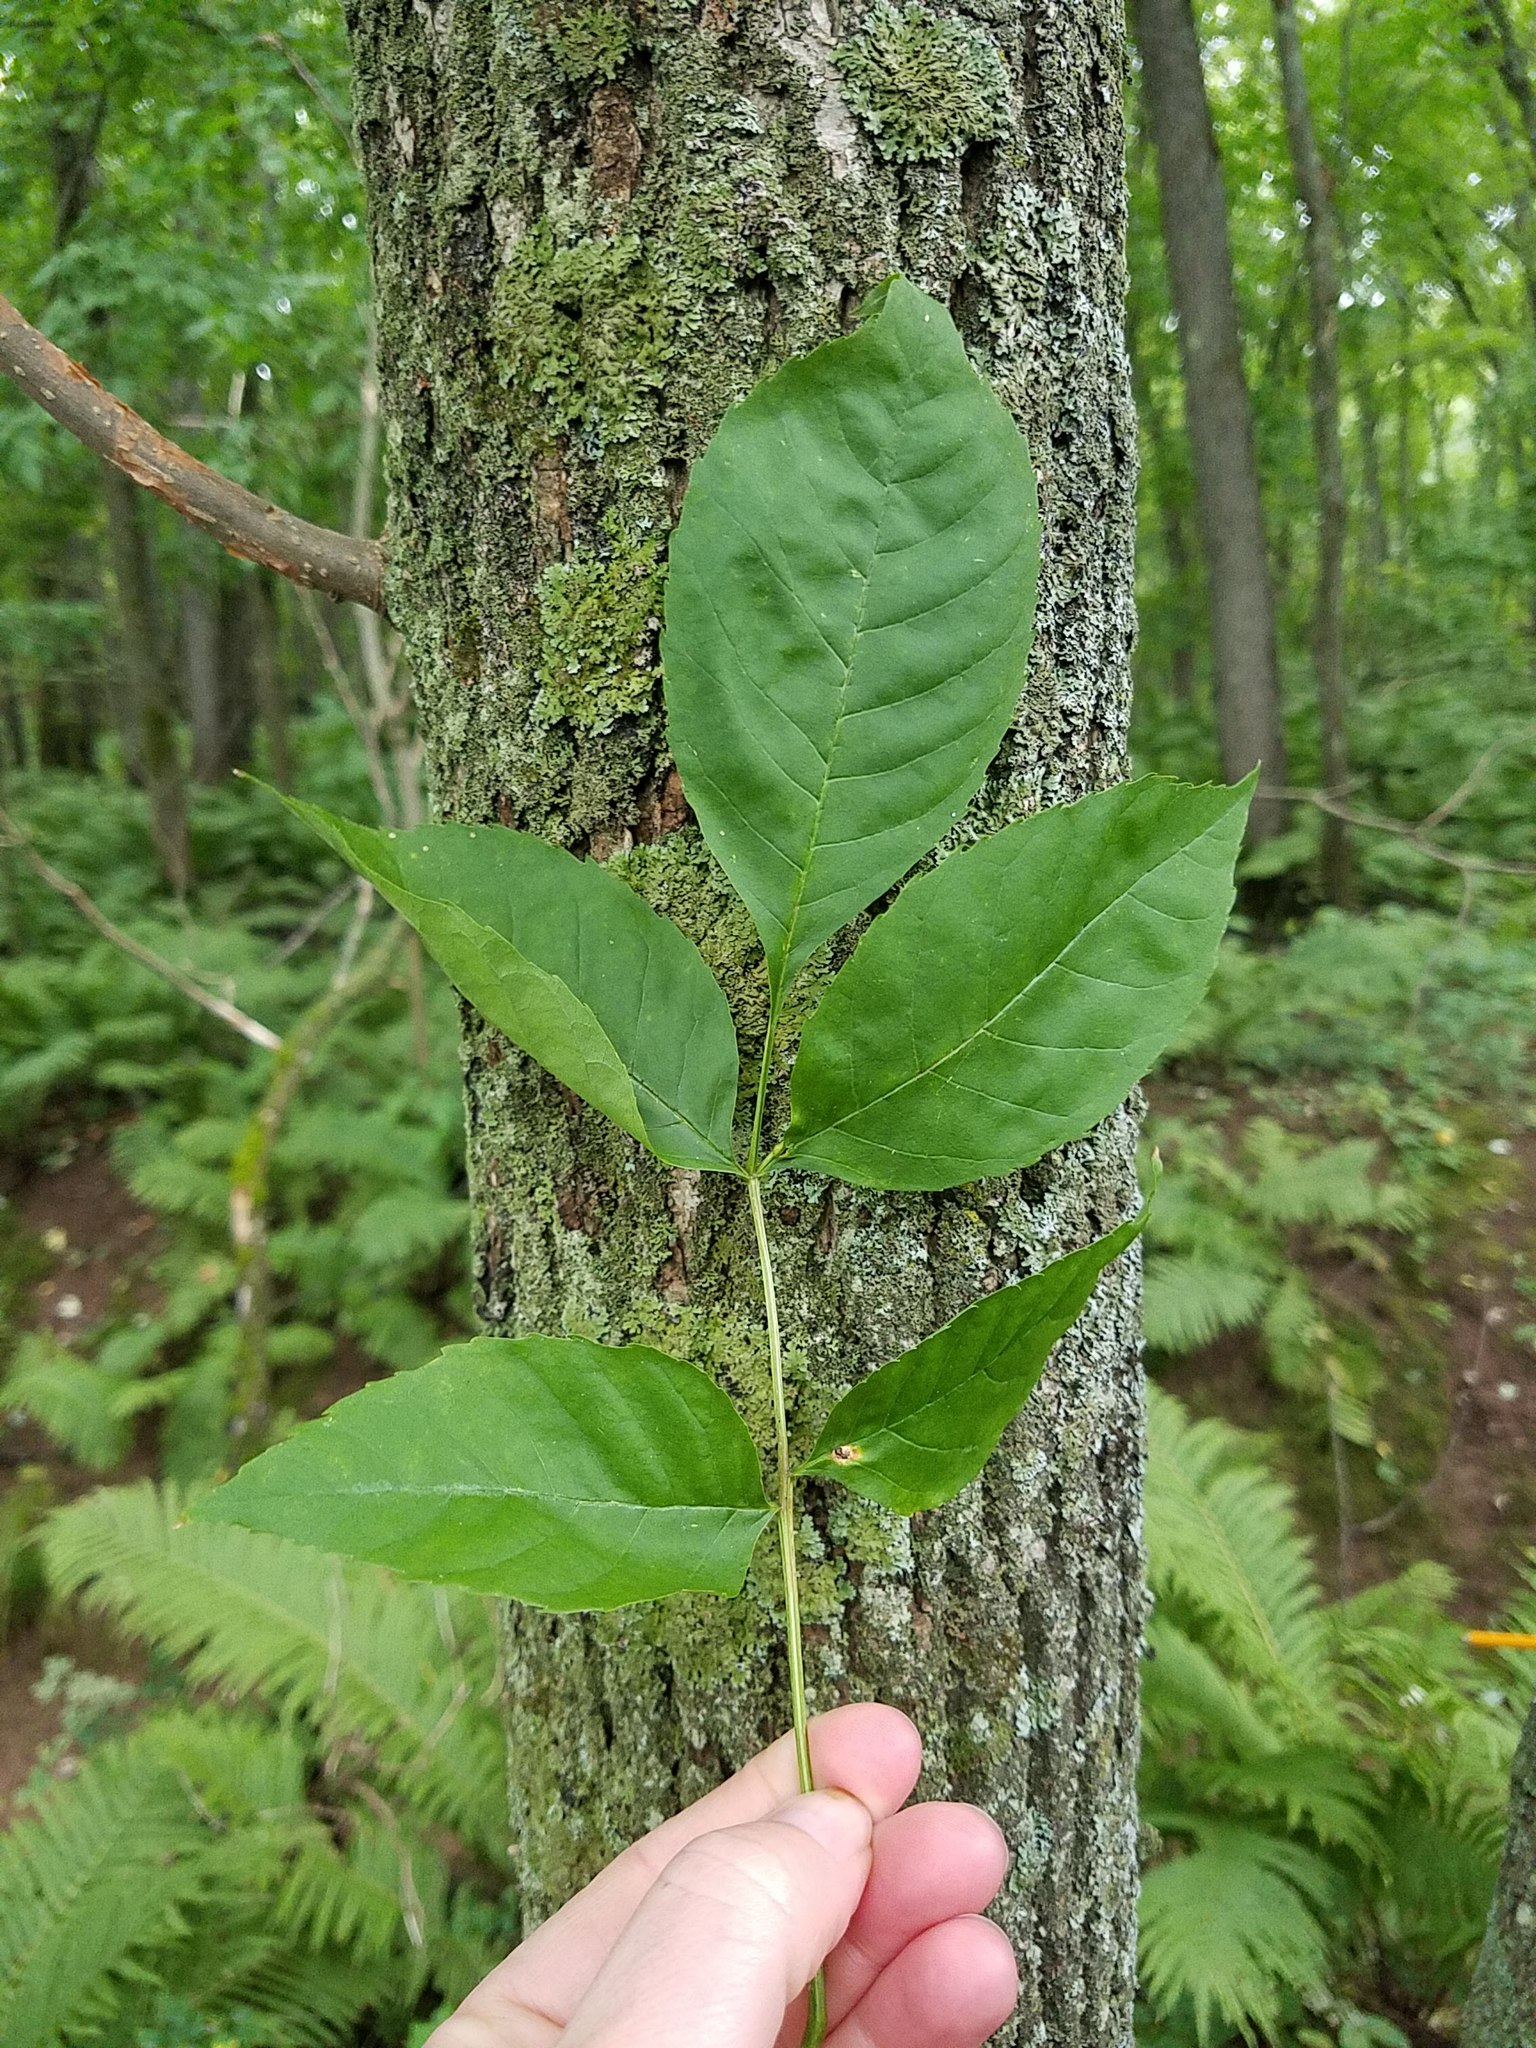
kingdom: Plantae
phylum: Tracheophyta
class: Magnoliopsida
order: Lamiales
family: Oleaceae
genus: Fraxinus
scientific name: Fraxinus pennsylvanica
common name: Green ash
